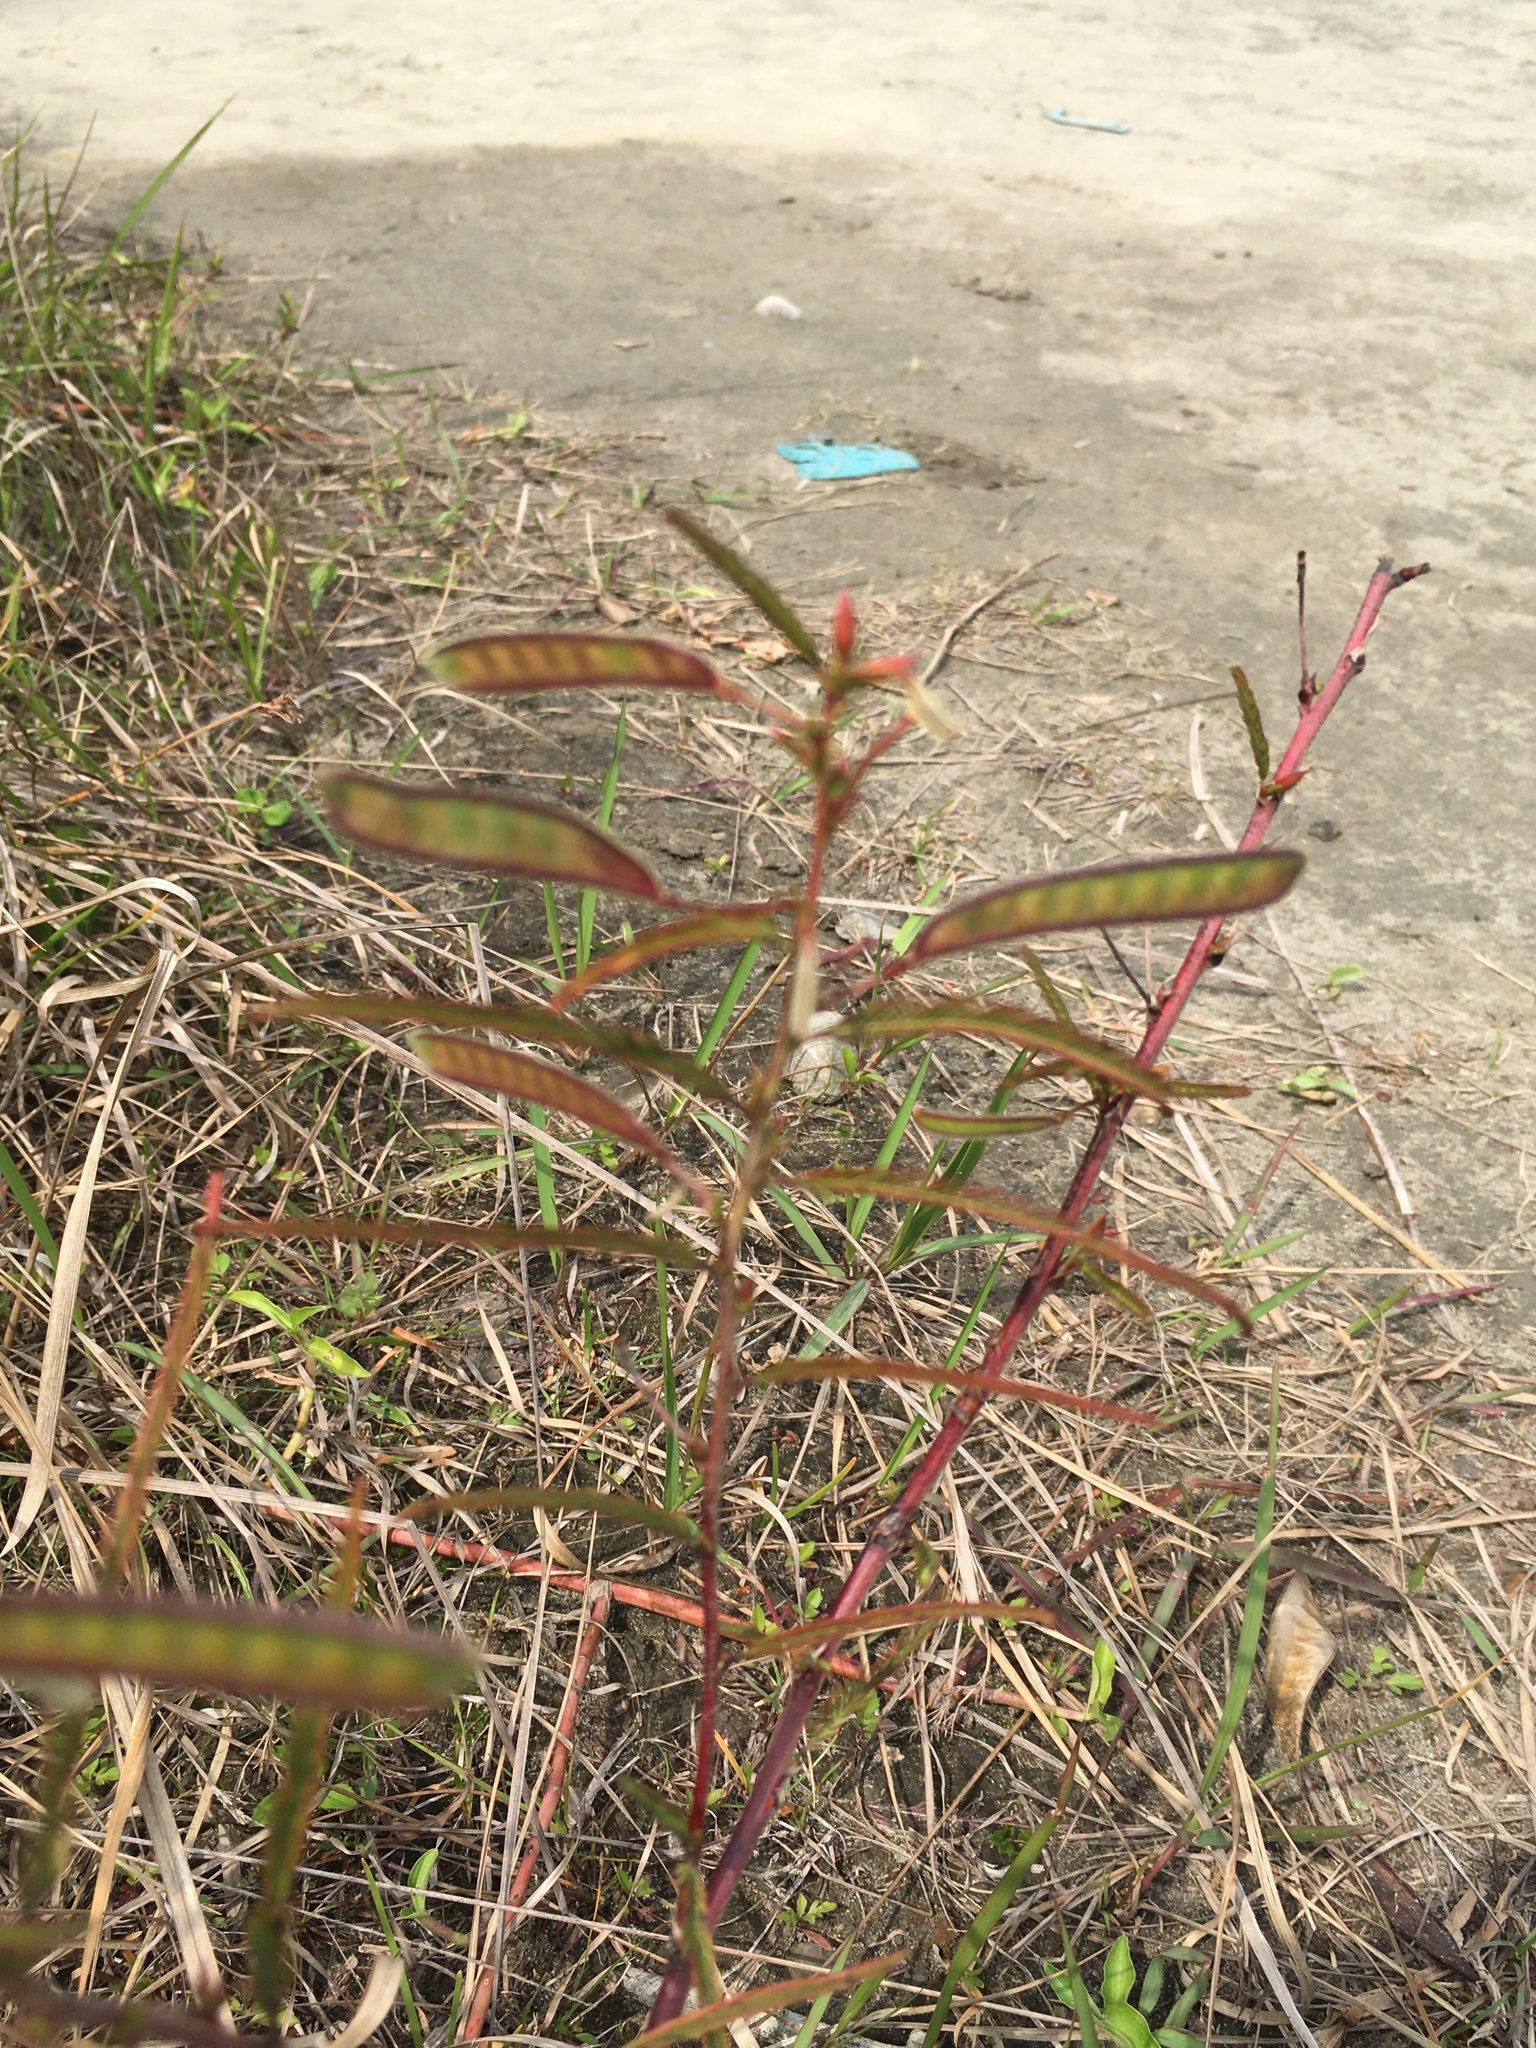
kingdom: Plantae
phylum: Tracheophyta
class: Magnoliopsida
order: Fabales
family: Fabaceae
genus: Chamaecrista
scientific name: Chamaecrista mimosoides
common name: Fish-bone cassia
